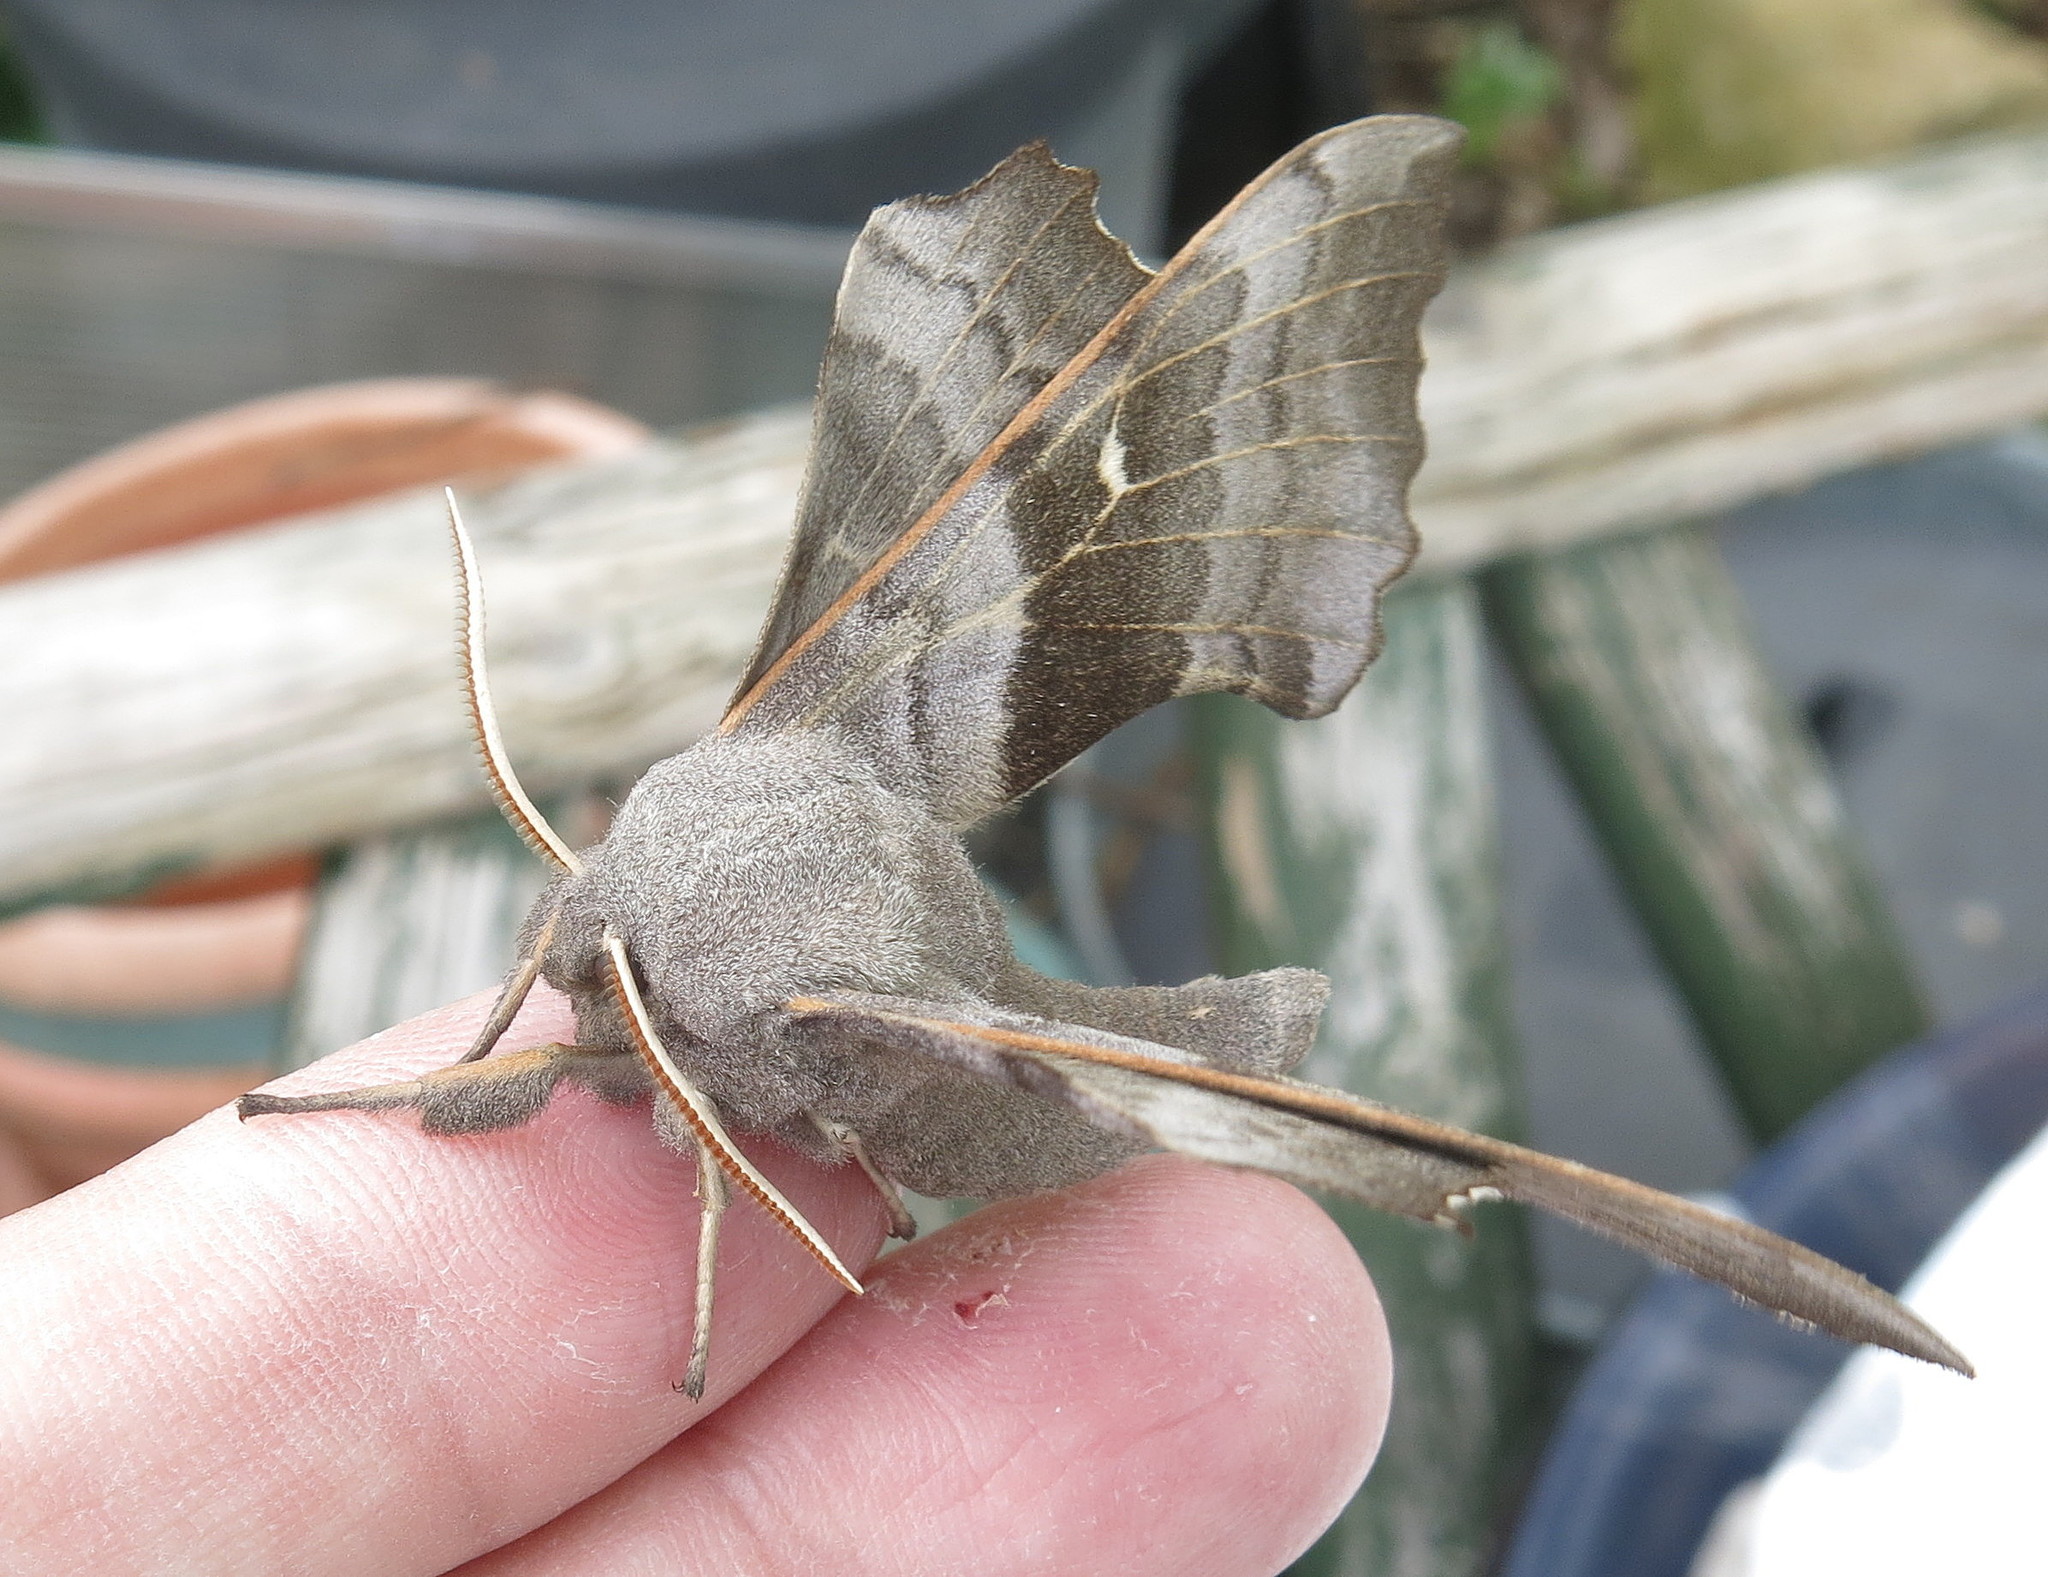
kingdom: Animalia
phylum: Arthropoda
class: Insecta
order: Lepidoptera
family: Sphingidae
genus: Laothoe
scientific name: Laothoe populi
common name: Poplar hawk-moth
